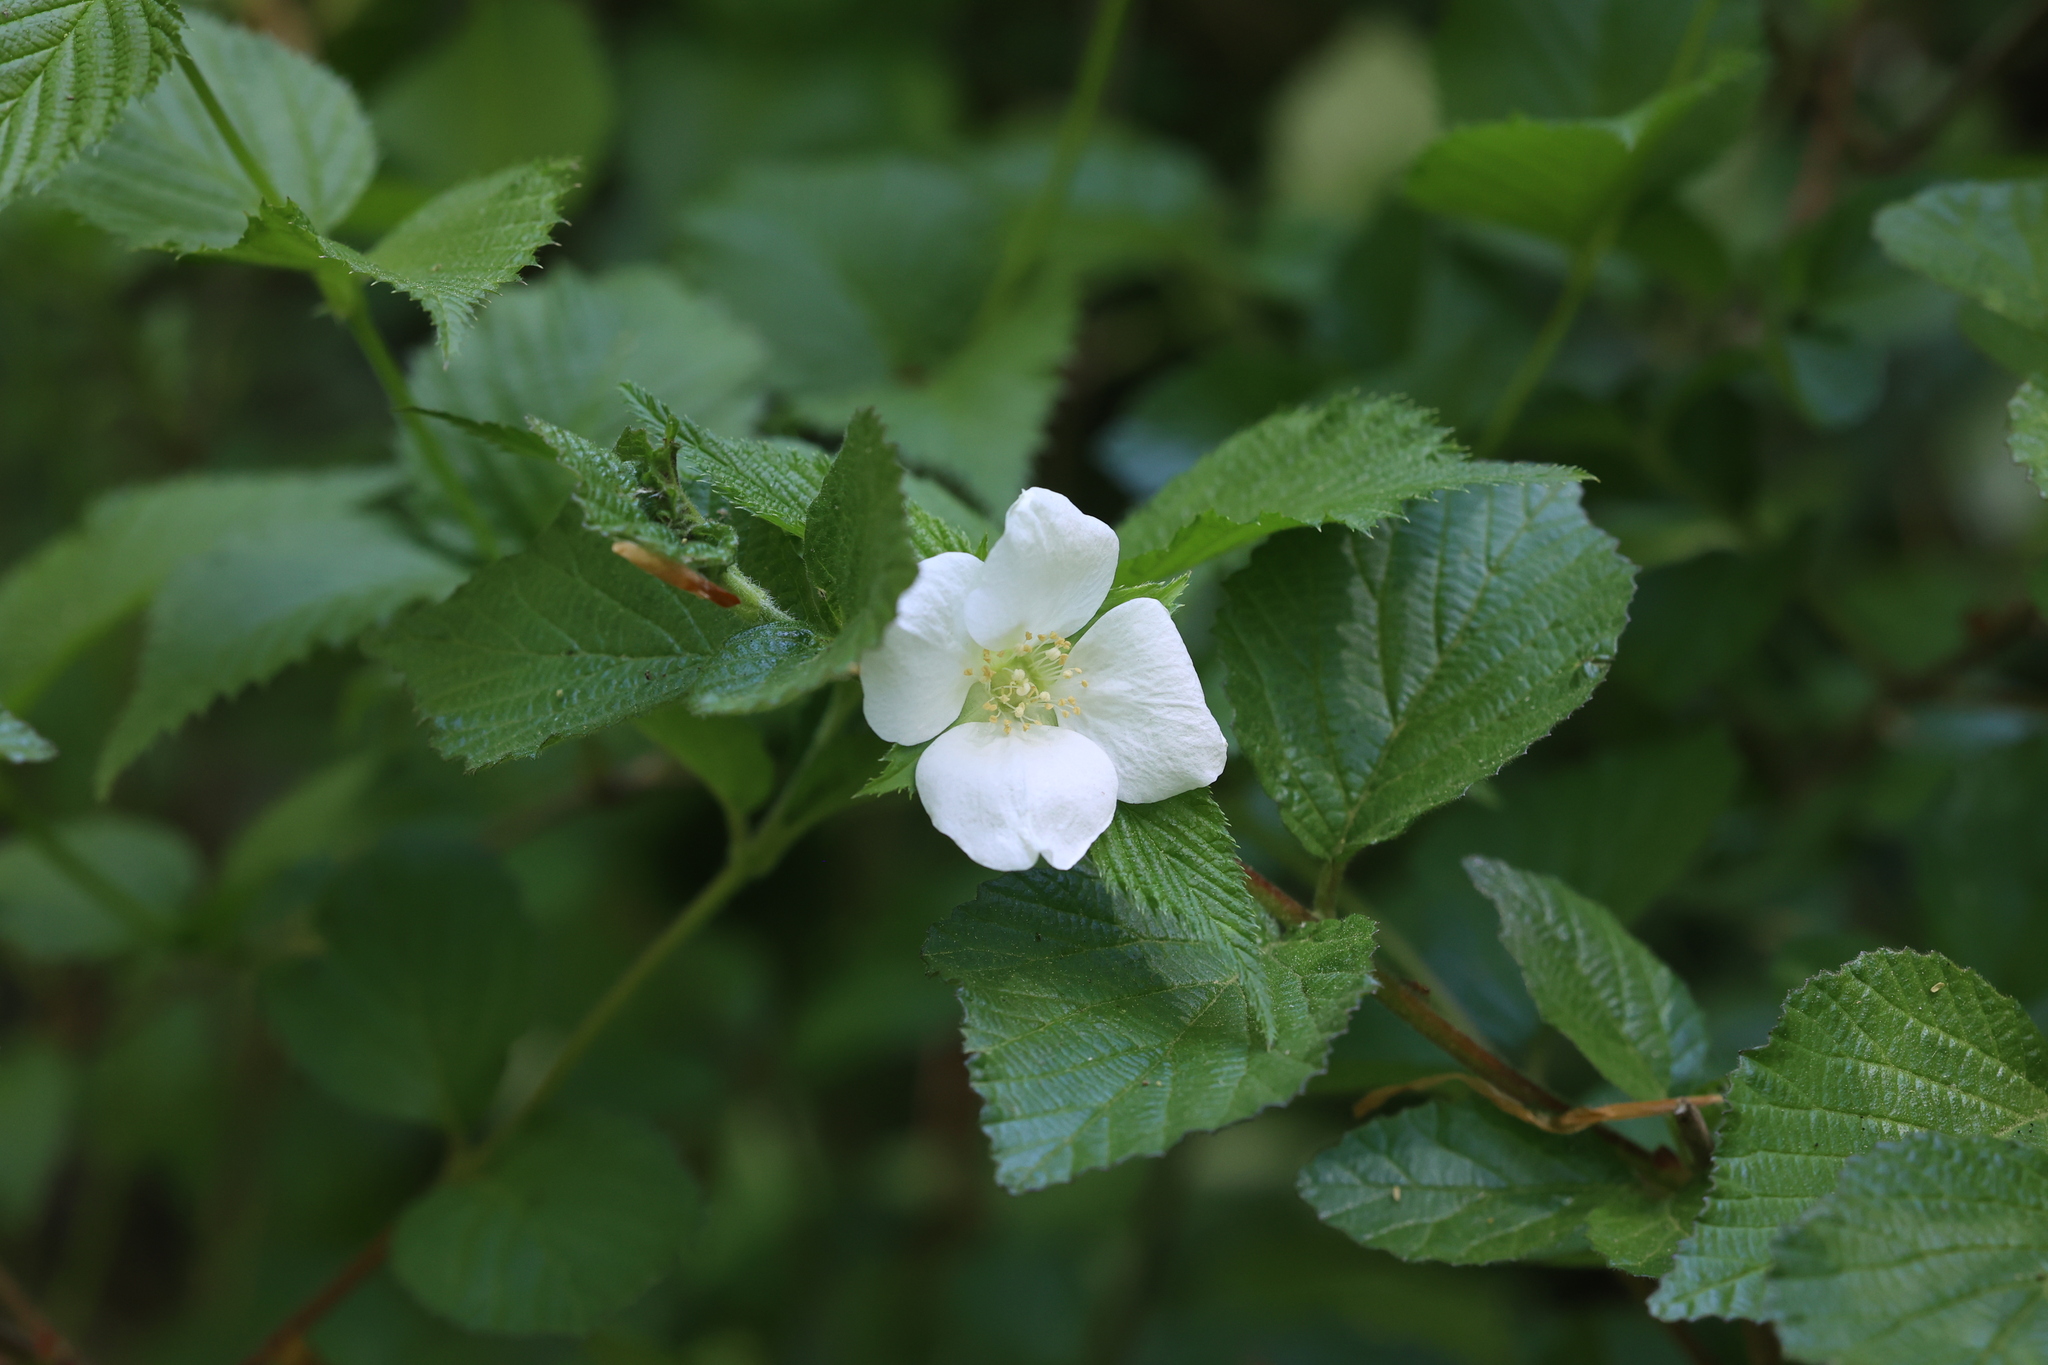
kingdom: Plantae
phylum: Tracheophyta
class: Magnoliopsida
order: Rosales
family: Rosaceae
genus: Rhodotypos
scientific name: Rhodotypos scandens
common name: Jetbead
